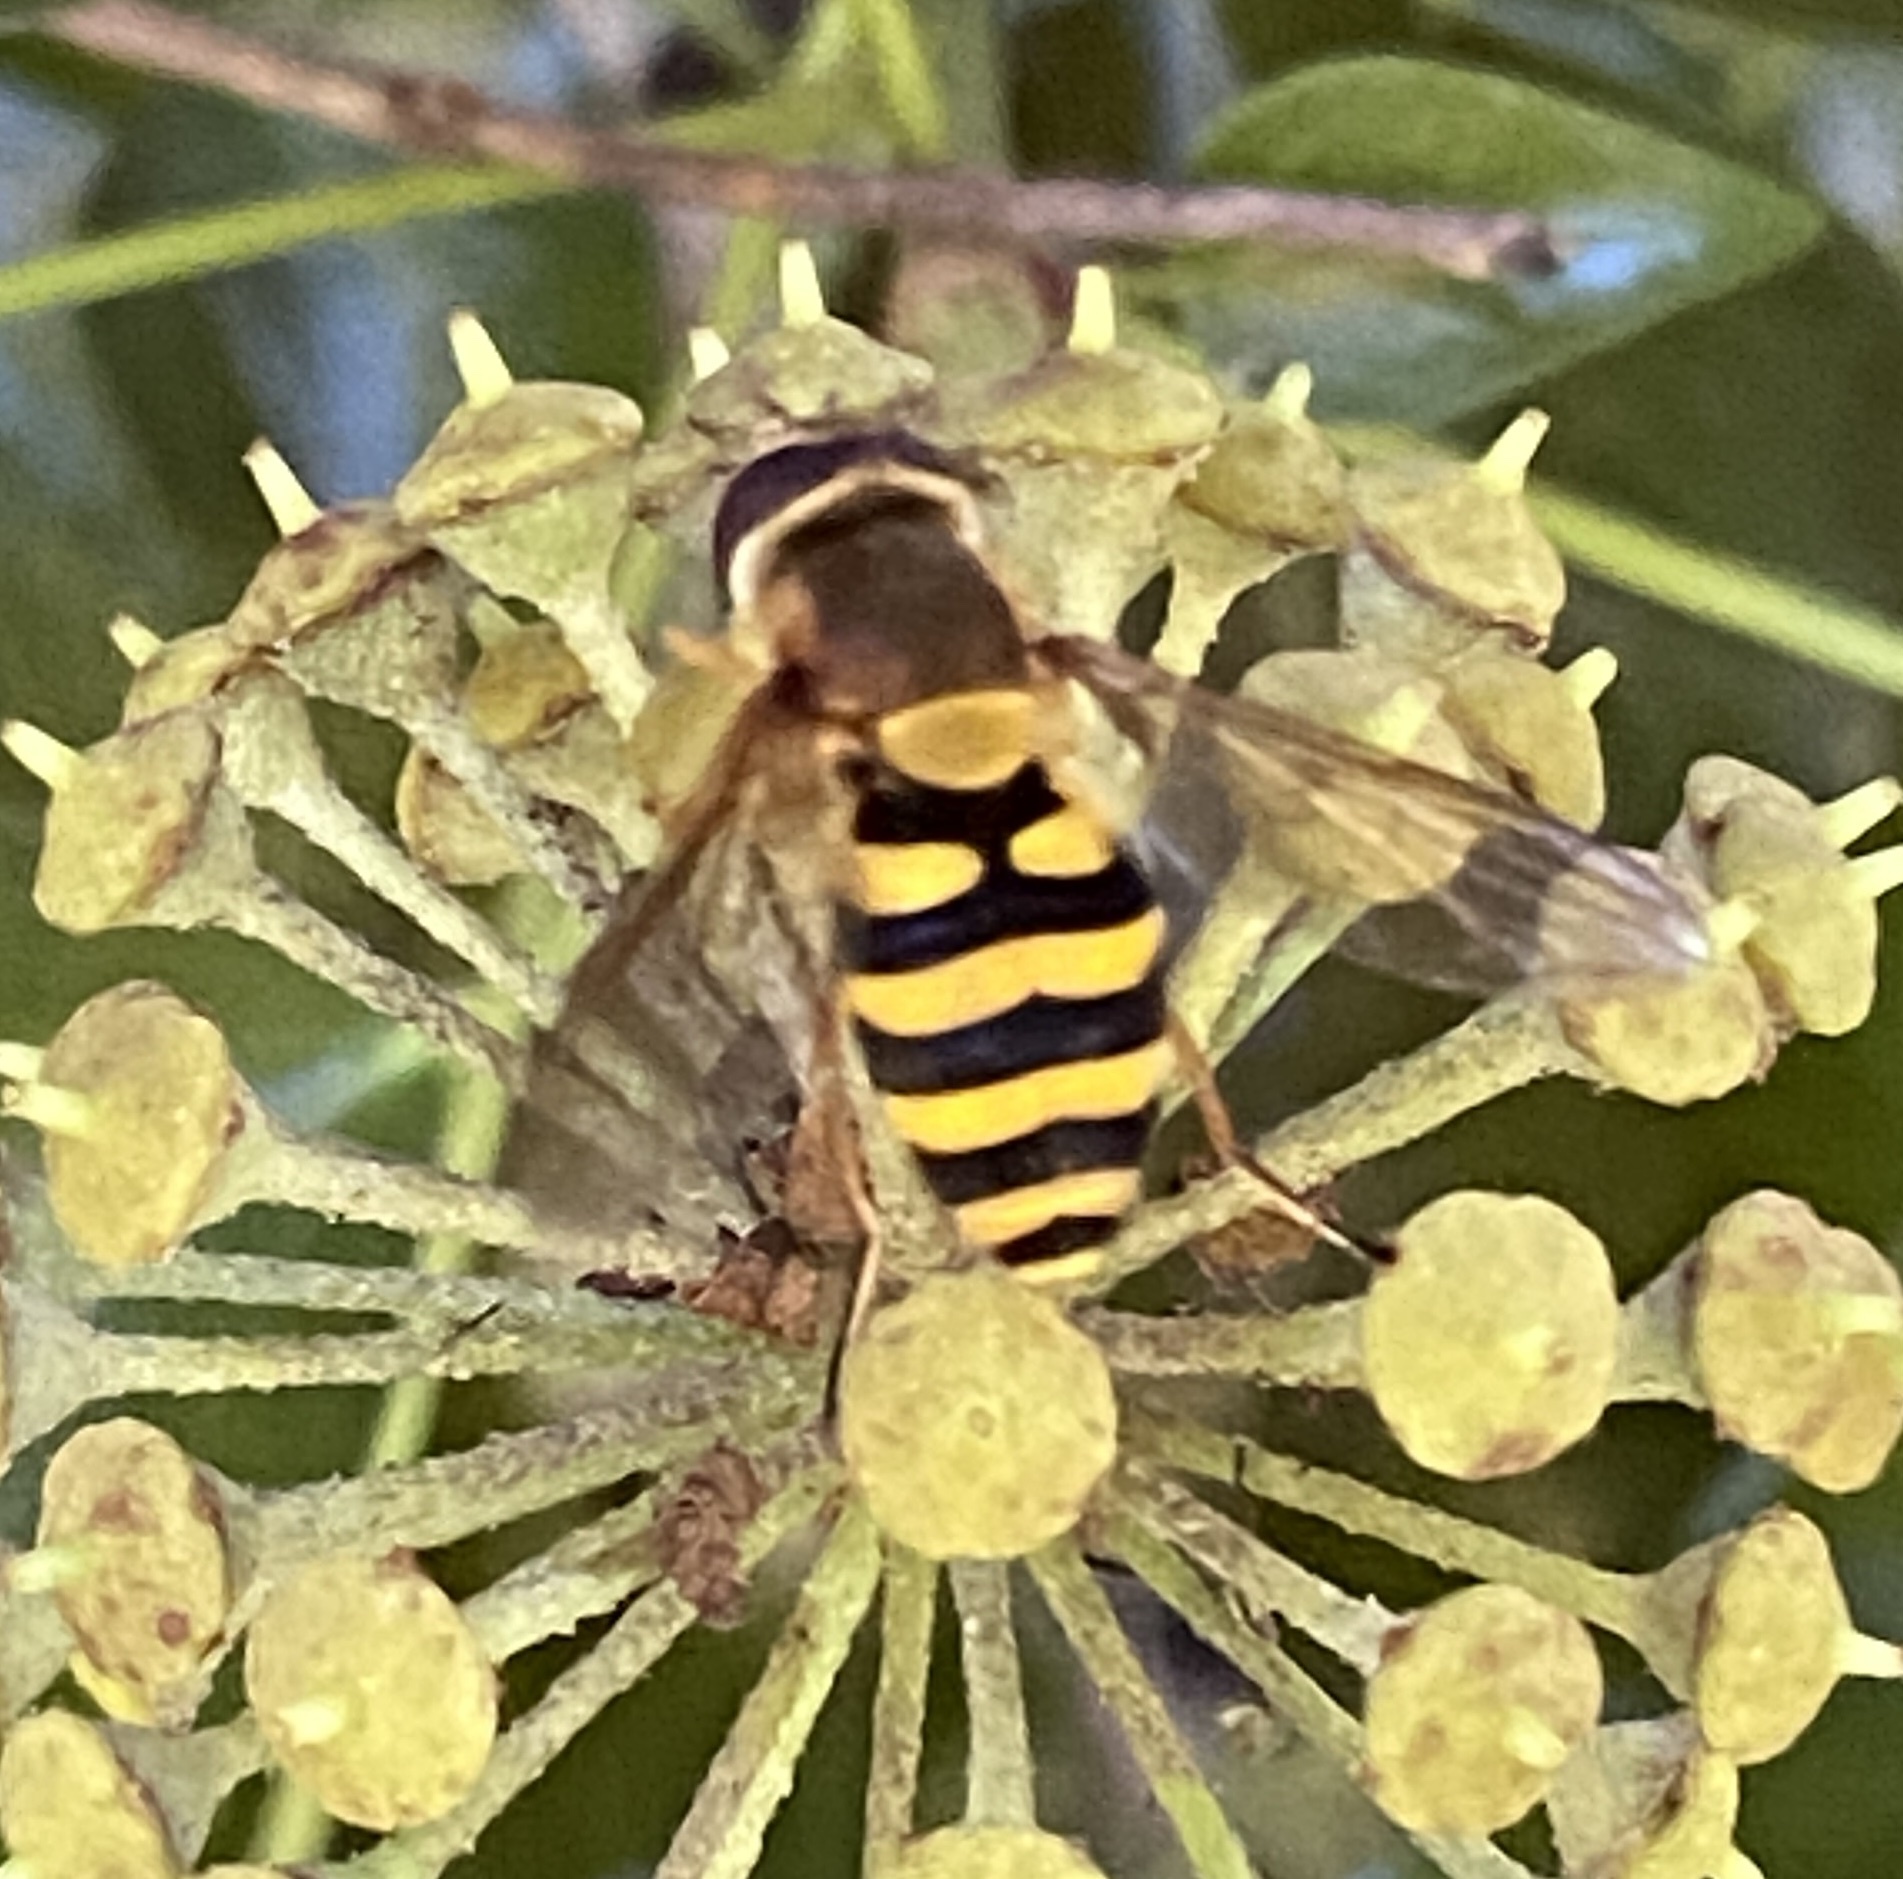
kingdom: Animalia
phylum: Arthropoda
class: Insecta
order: Diptera
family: Syrphidae
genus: Syrphus
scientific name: Syrphus
